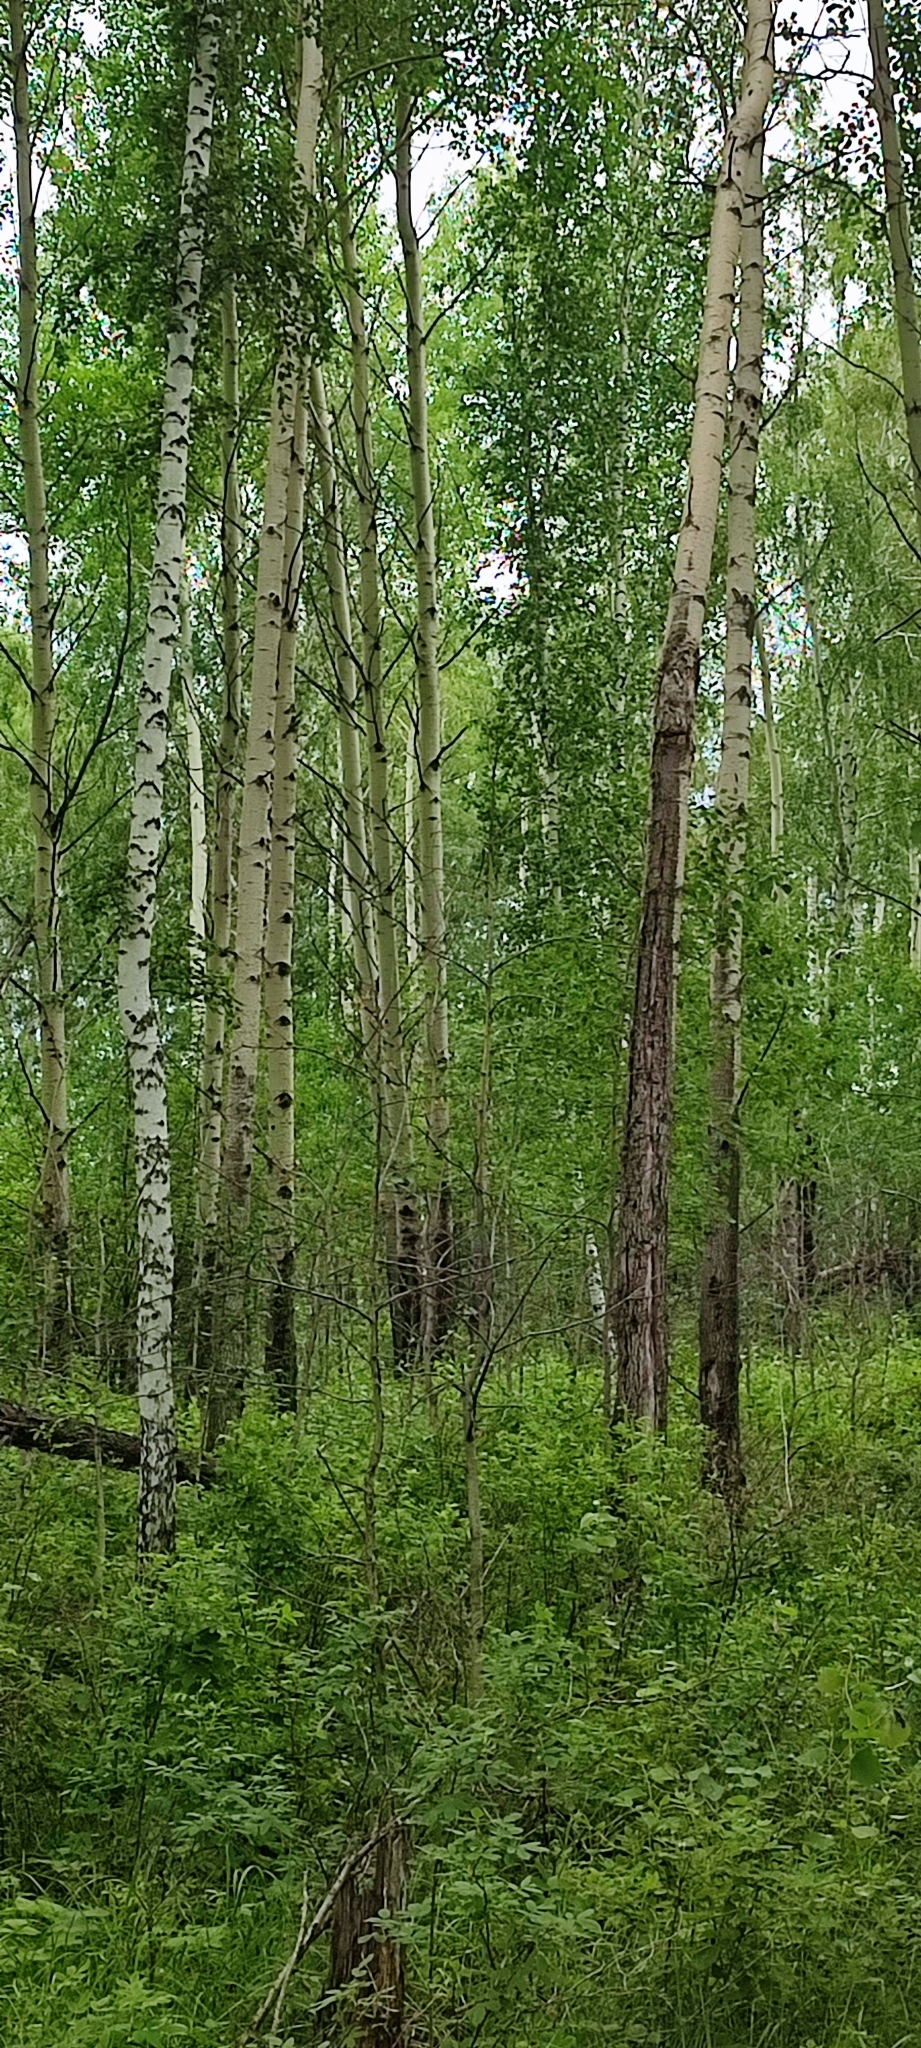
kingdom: Plantae
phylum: Tracheophyta
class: Magnoliopsida
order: Malpighiales
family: Salicaceae
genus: Populus
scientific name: Populus tremula
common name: European aspen
